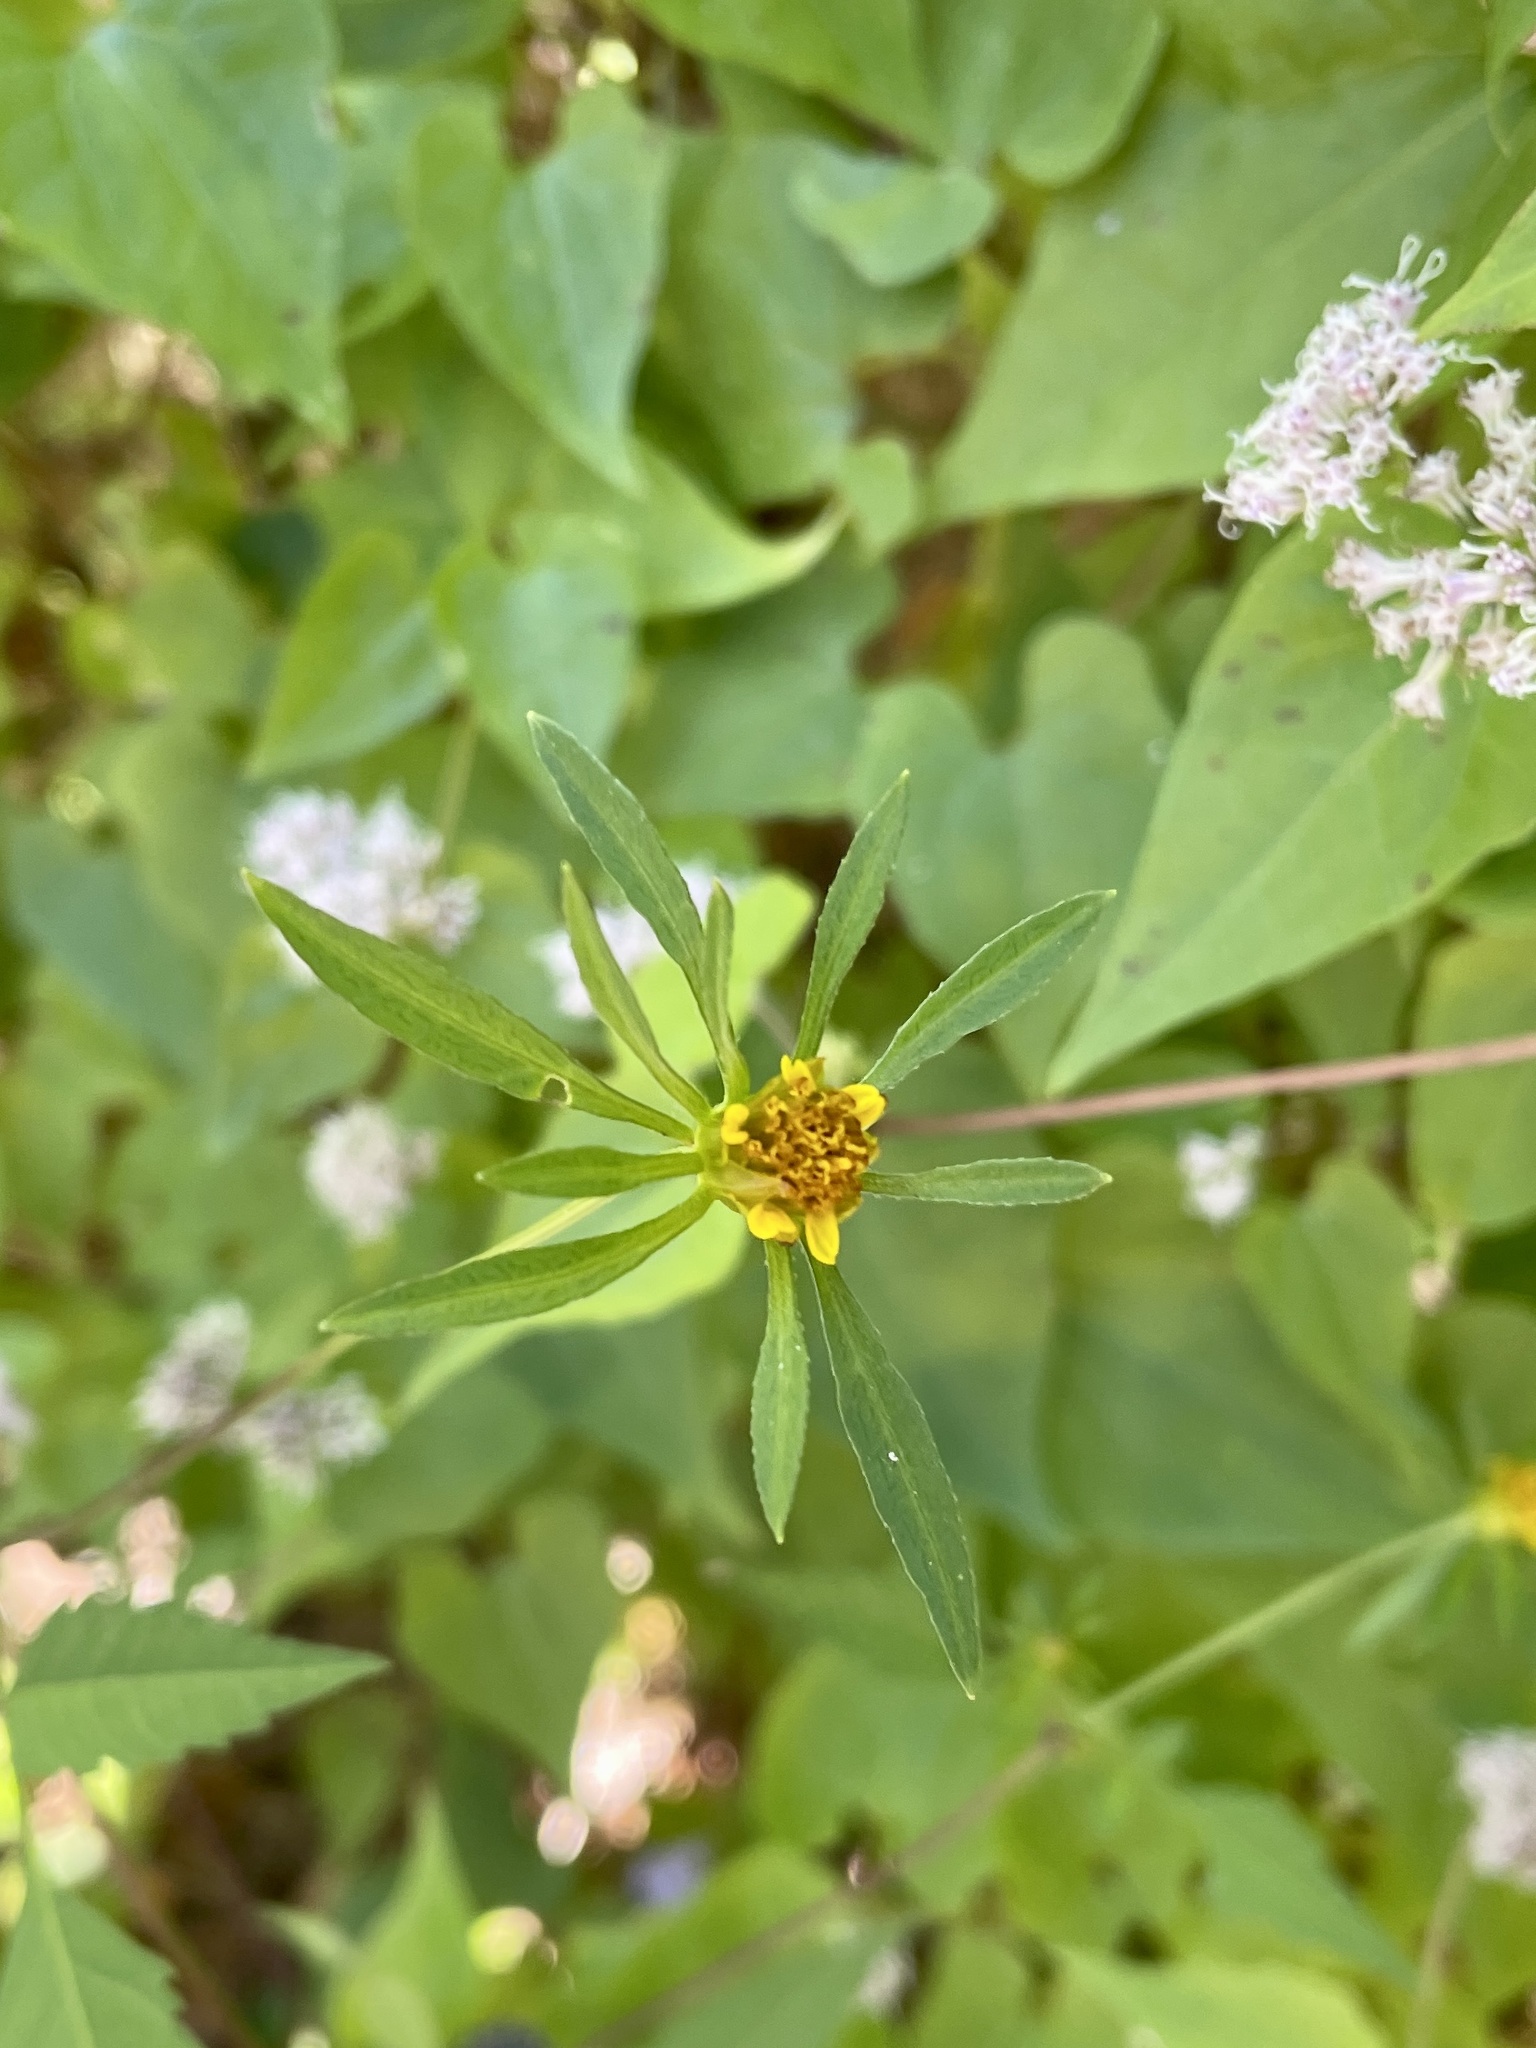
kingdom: Plantae
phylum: Tracheophyta
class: Magnoliopsida
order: Asterales
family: Asteraceae
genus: Bidens
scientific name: Bidens frondosa
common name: Beggarticks
